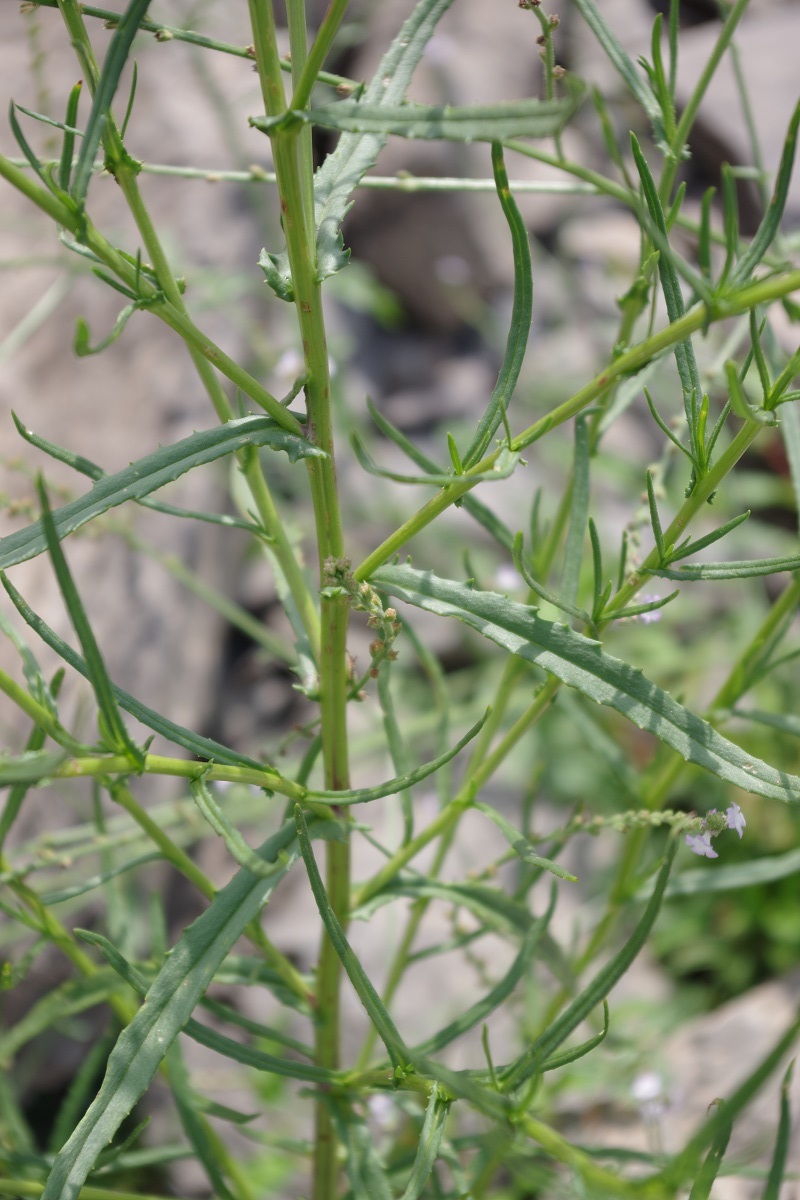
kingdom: Plantae
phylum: Tracheophyta
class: Magnoliopsida
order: Lamiales
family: Verbenaceae
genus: Verbena
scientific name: Verbena officinalis
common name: Vervain
